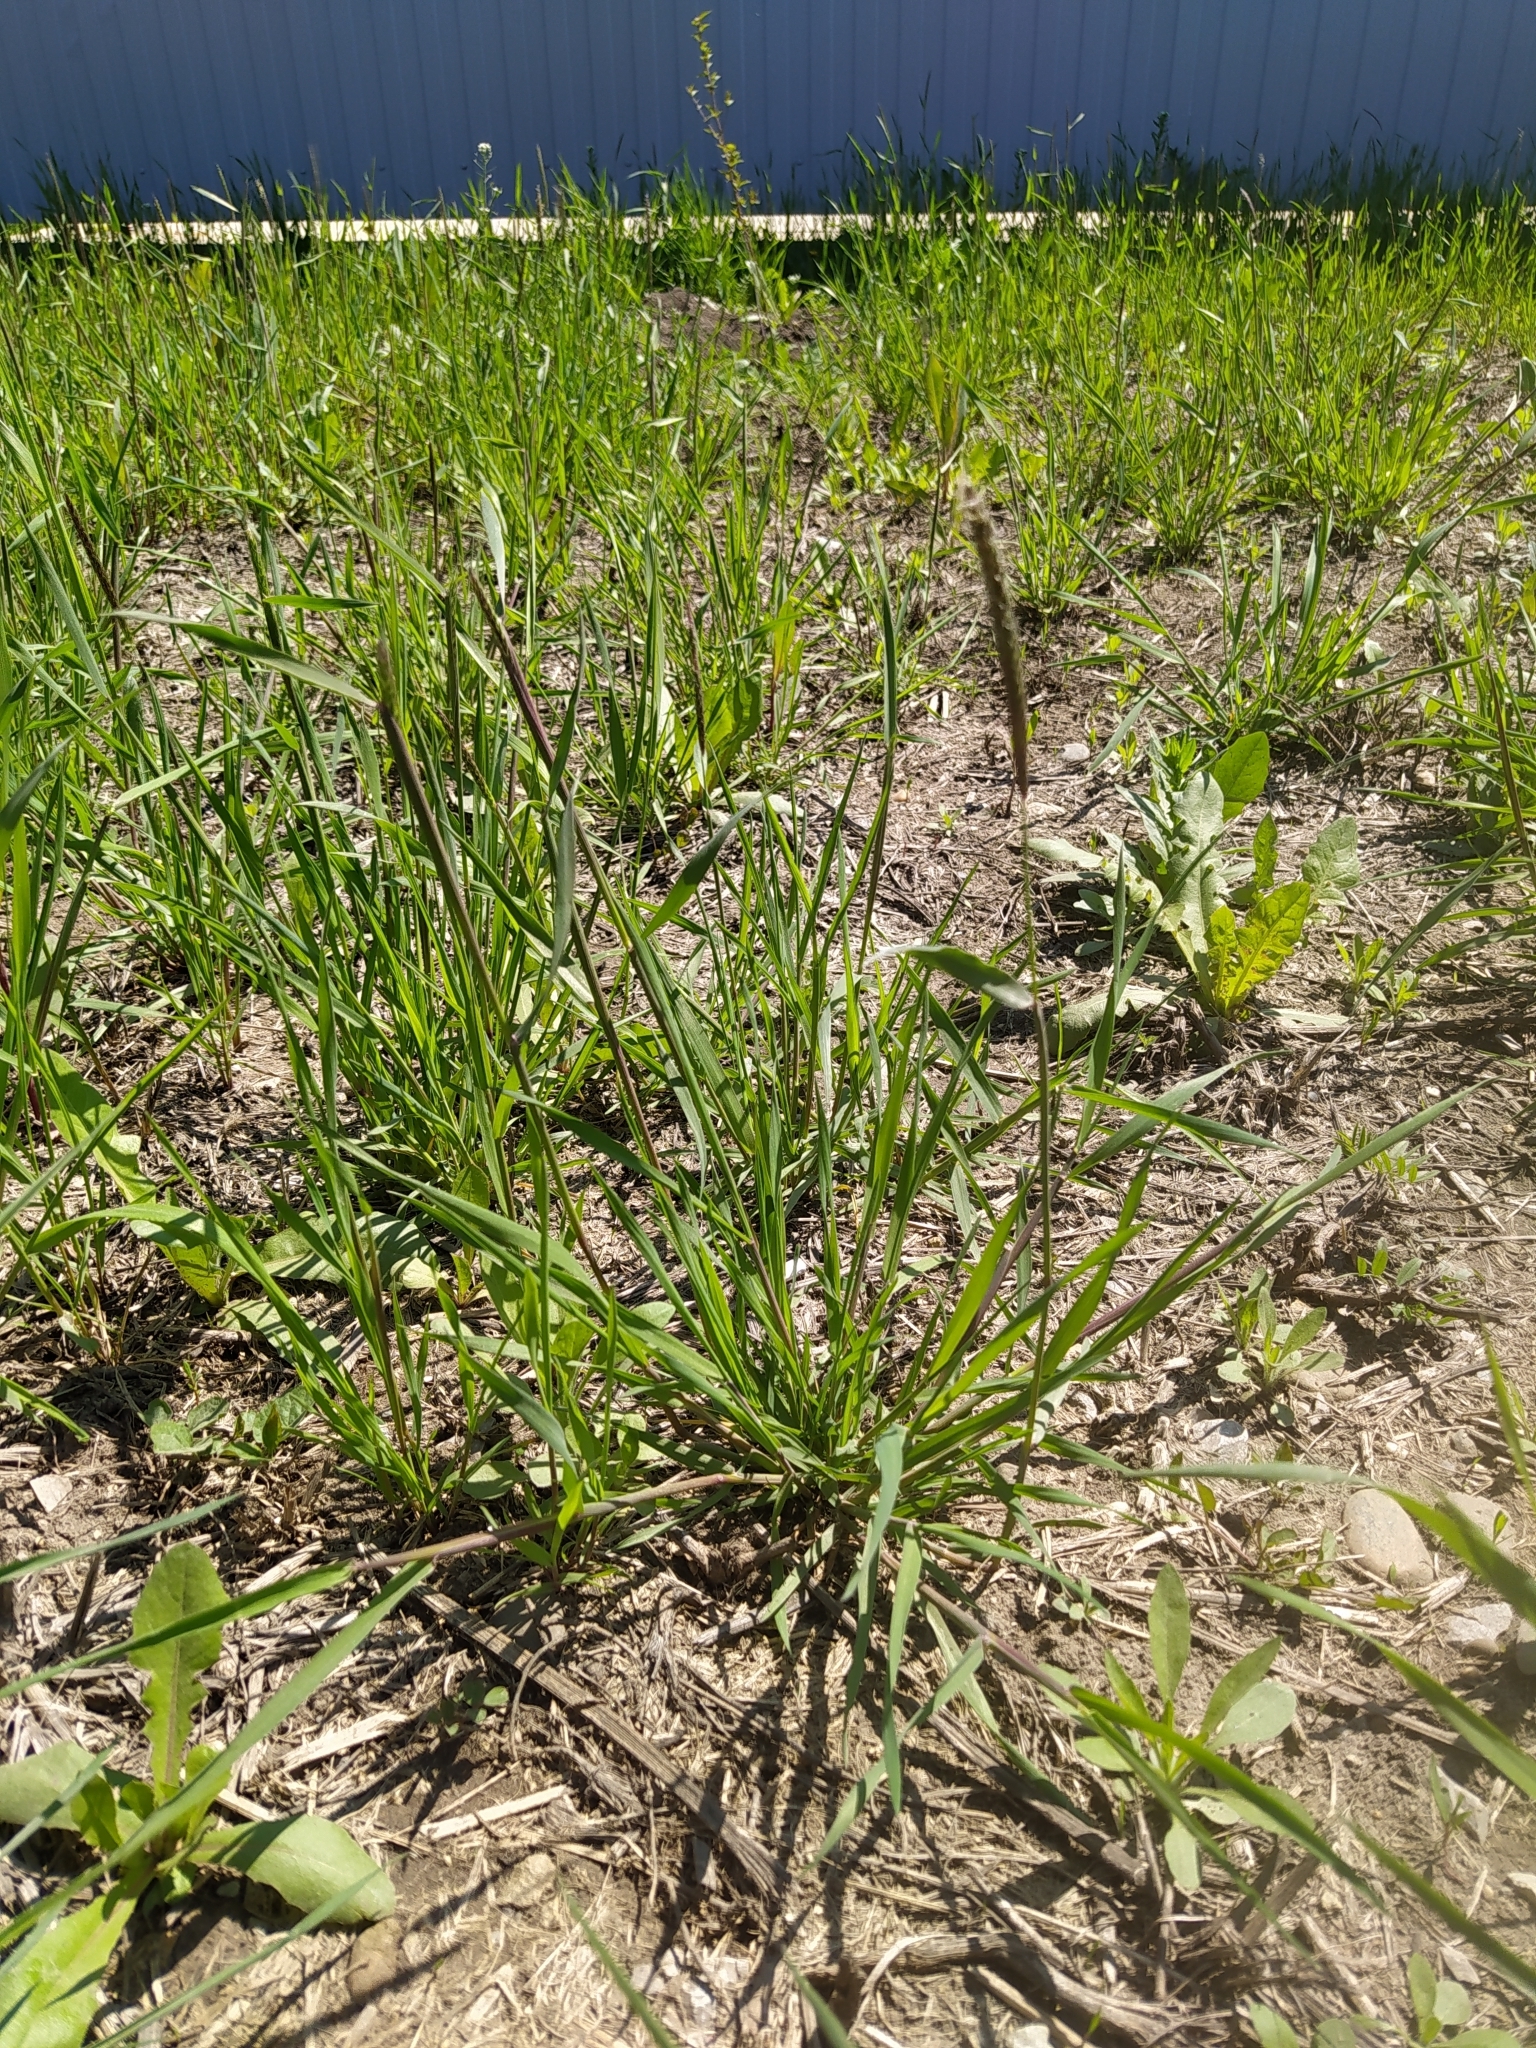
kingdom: Plantae
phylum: Tracheophyta
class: Liliopsida
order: Poales
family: Poaceae
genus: Alopecurus
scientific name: Alopecurus myosuroides
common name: Black-grass
